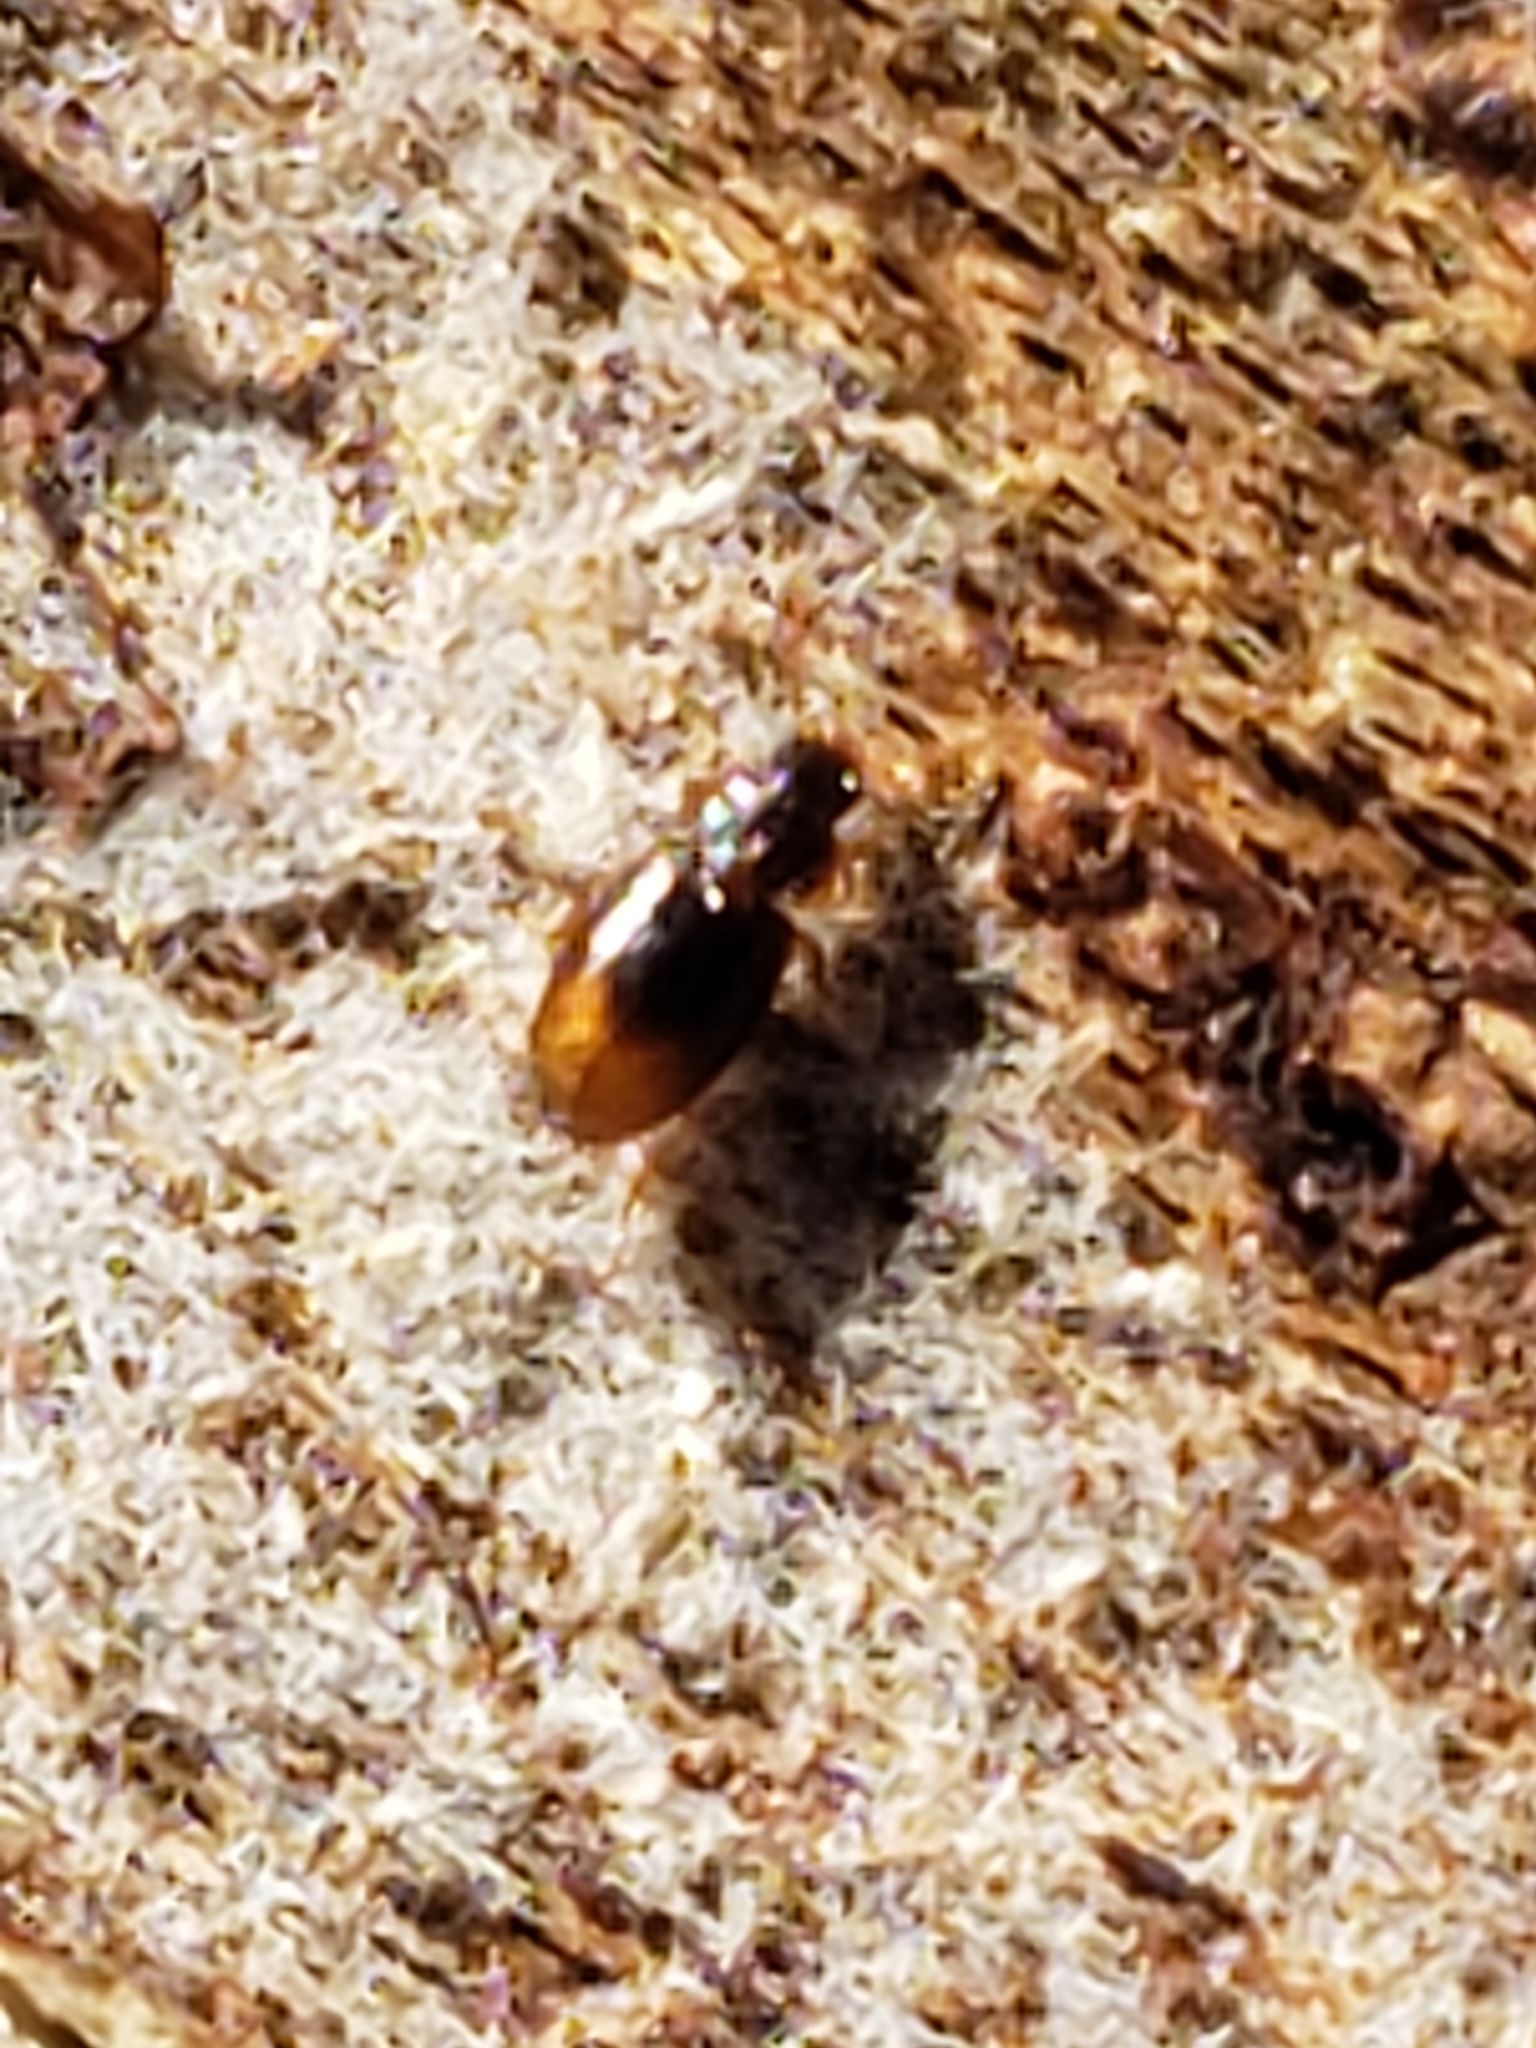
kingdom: Animalia
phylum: Arthropoda
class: Insecta
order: Coleoptera
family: Carabidae
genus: Mioptachys
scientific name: Mioptachys flavicauda
